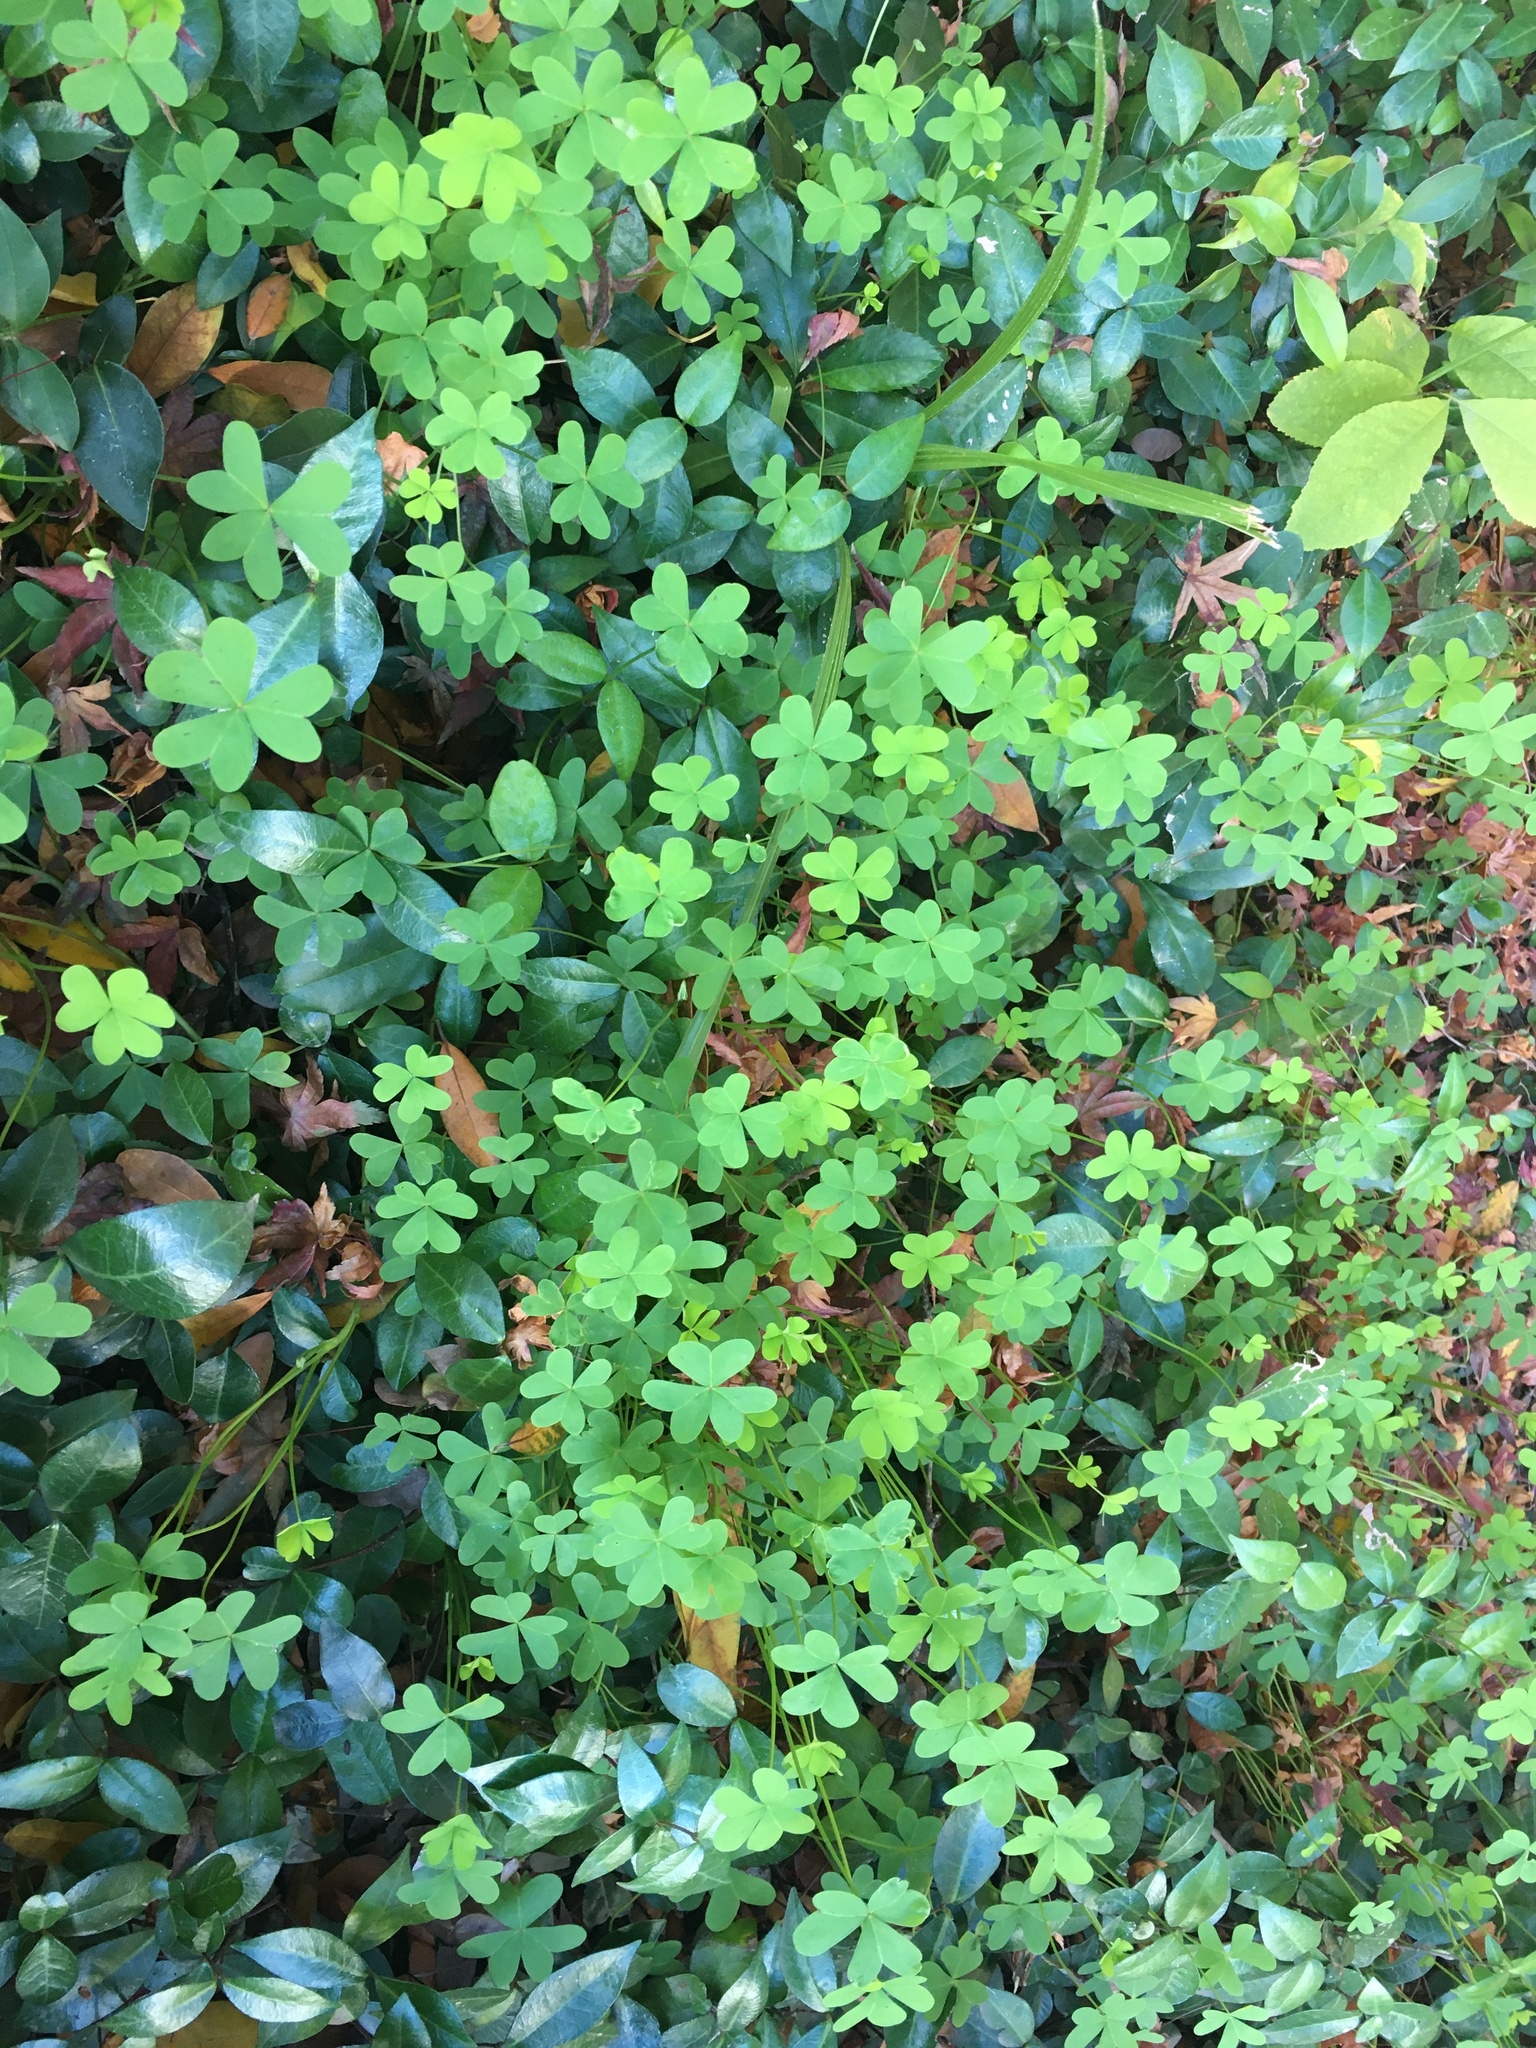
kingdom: Plantae
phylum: Tracheophyta
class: Magnoliopsida
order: Oxalidales
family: Oxalidaceae
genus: Oxalis
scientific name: Oxalis pes-caprae
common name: Bermuda-buttercup
